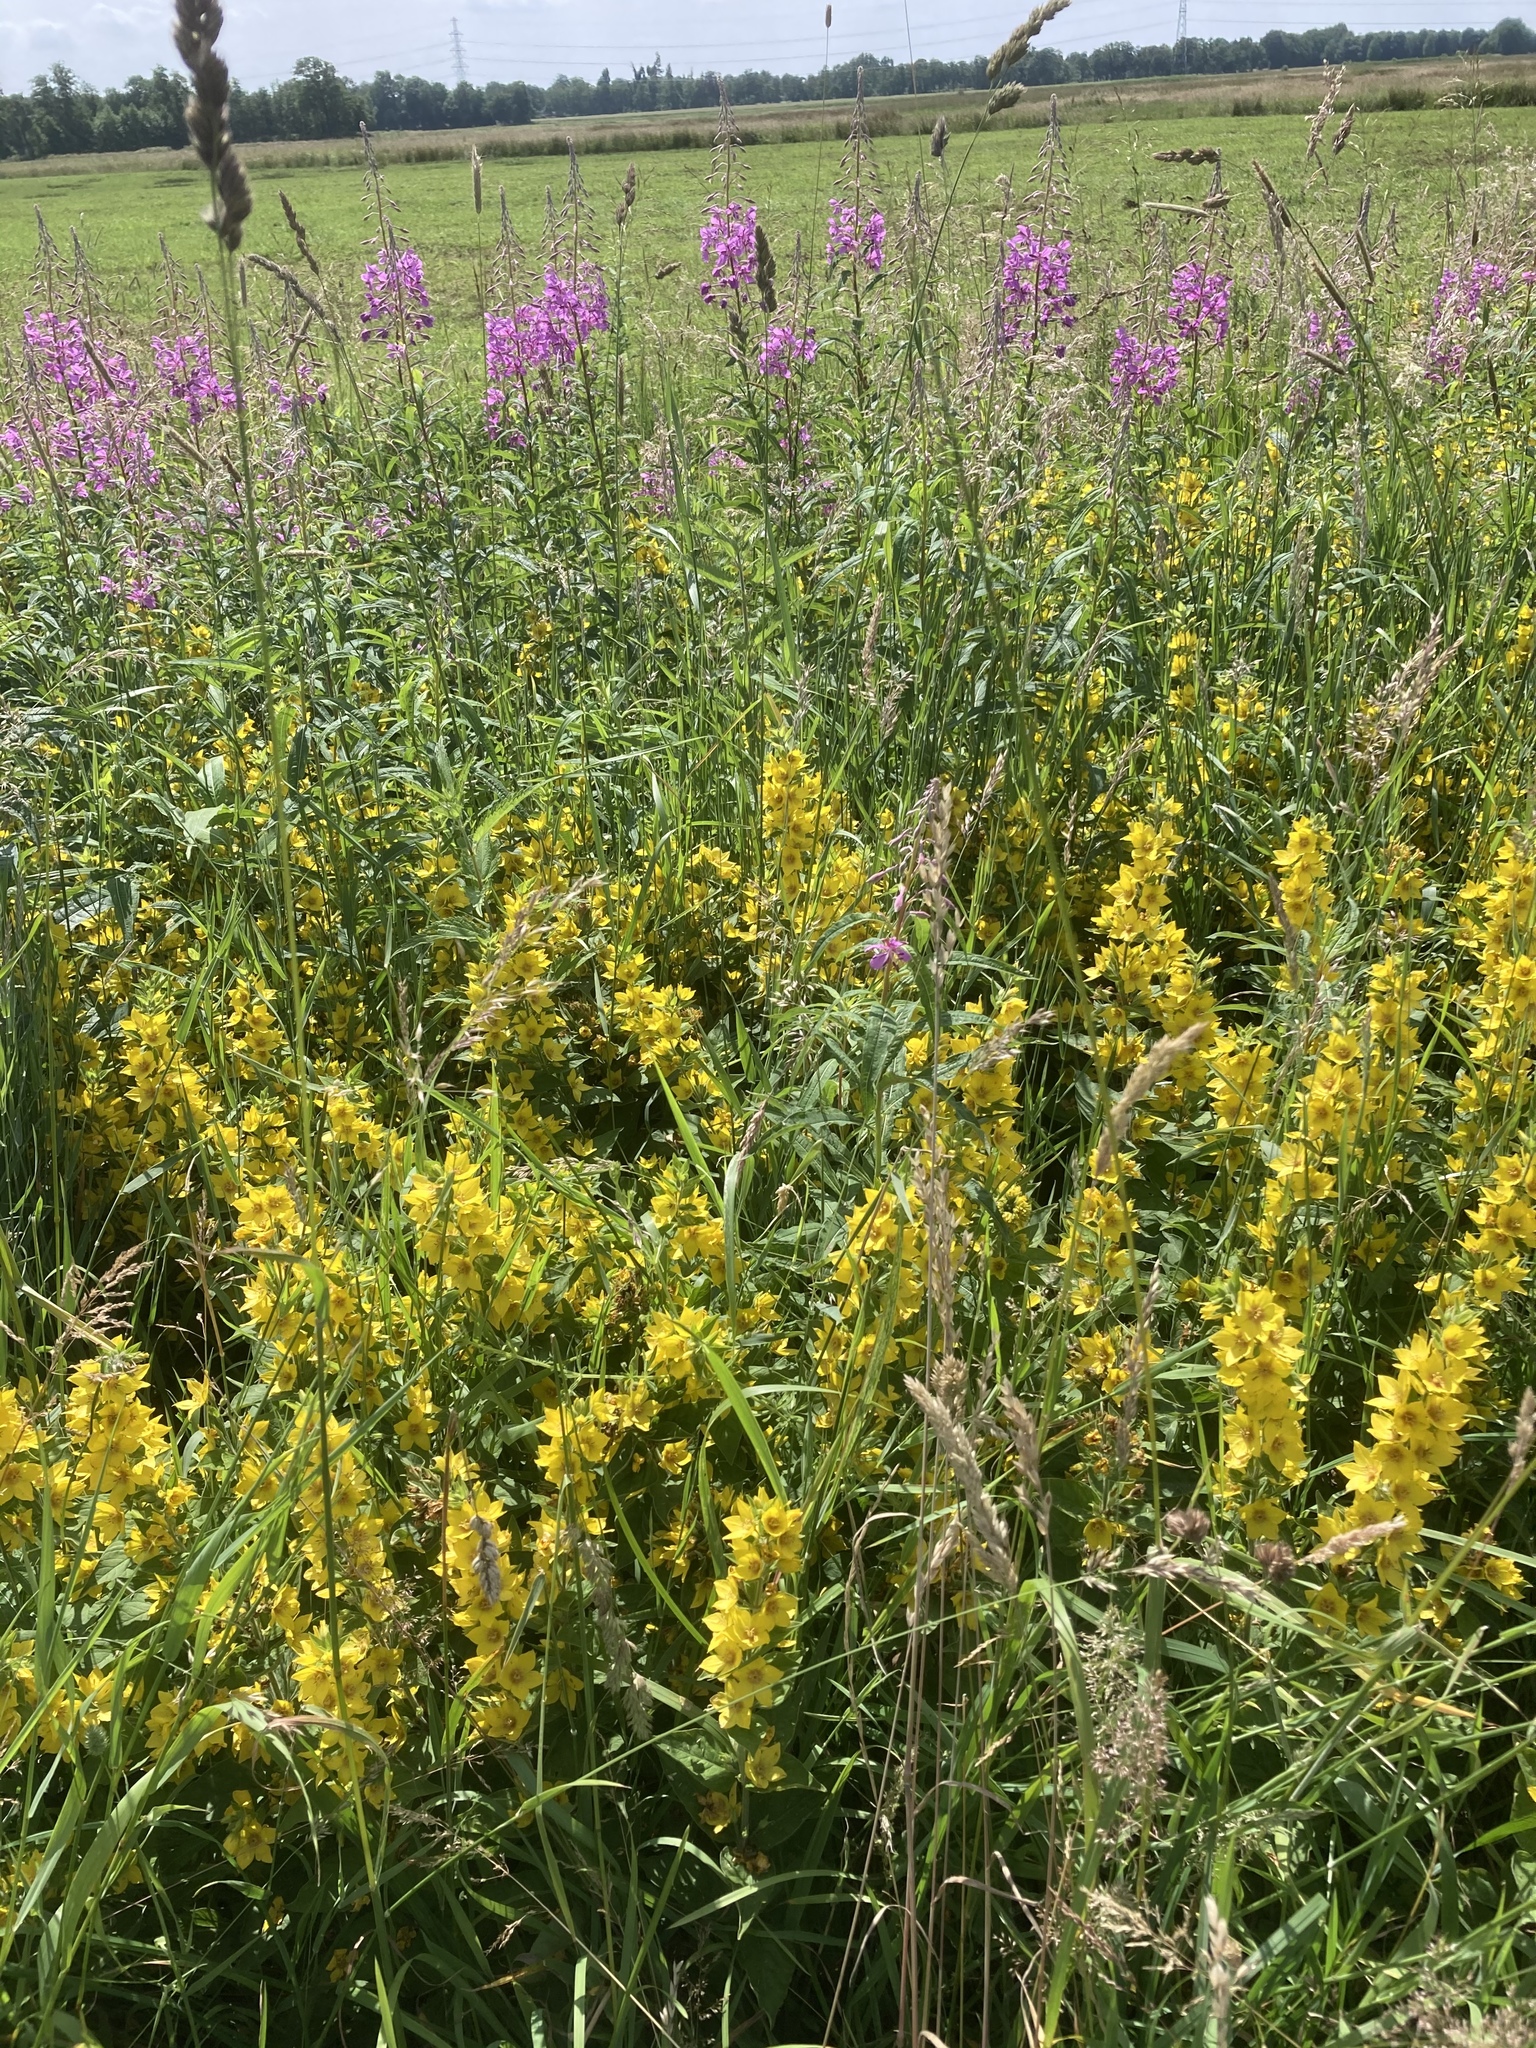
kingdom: Plantae
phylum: Tracheophyta
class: Magnoliopsida
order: Ericales
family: Primulaceae
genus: Lysimachia
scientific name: Lysimachia punctata
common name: Dotted loosestrife
